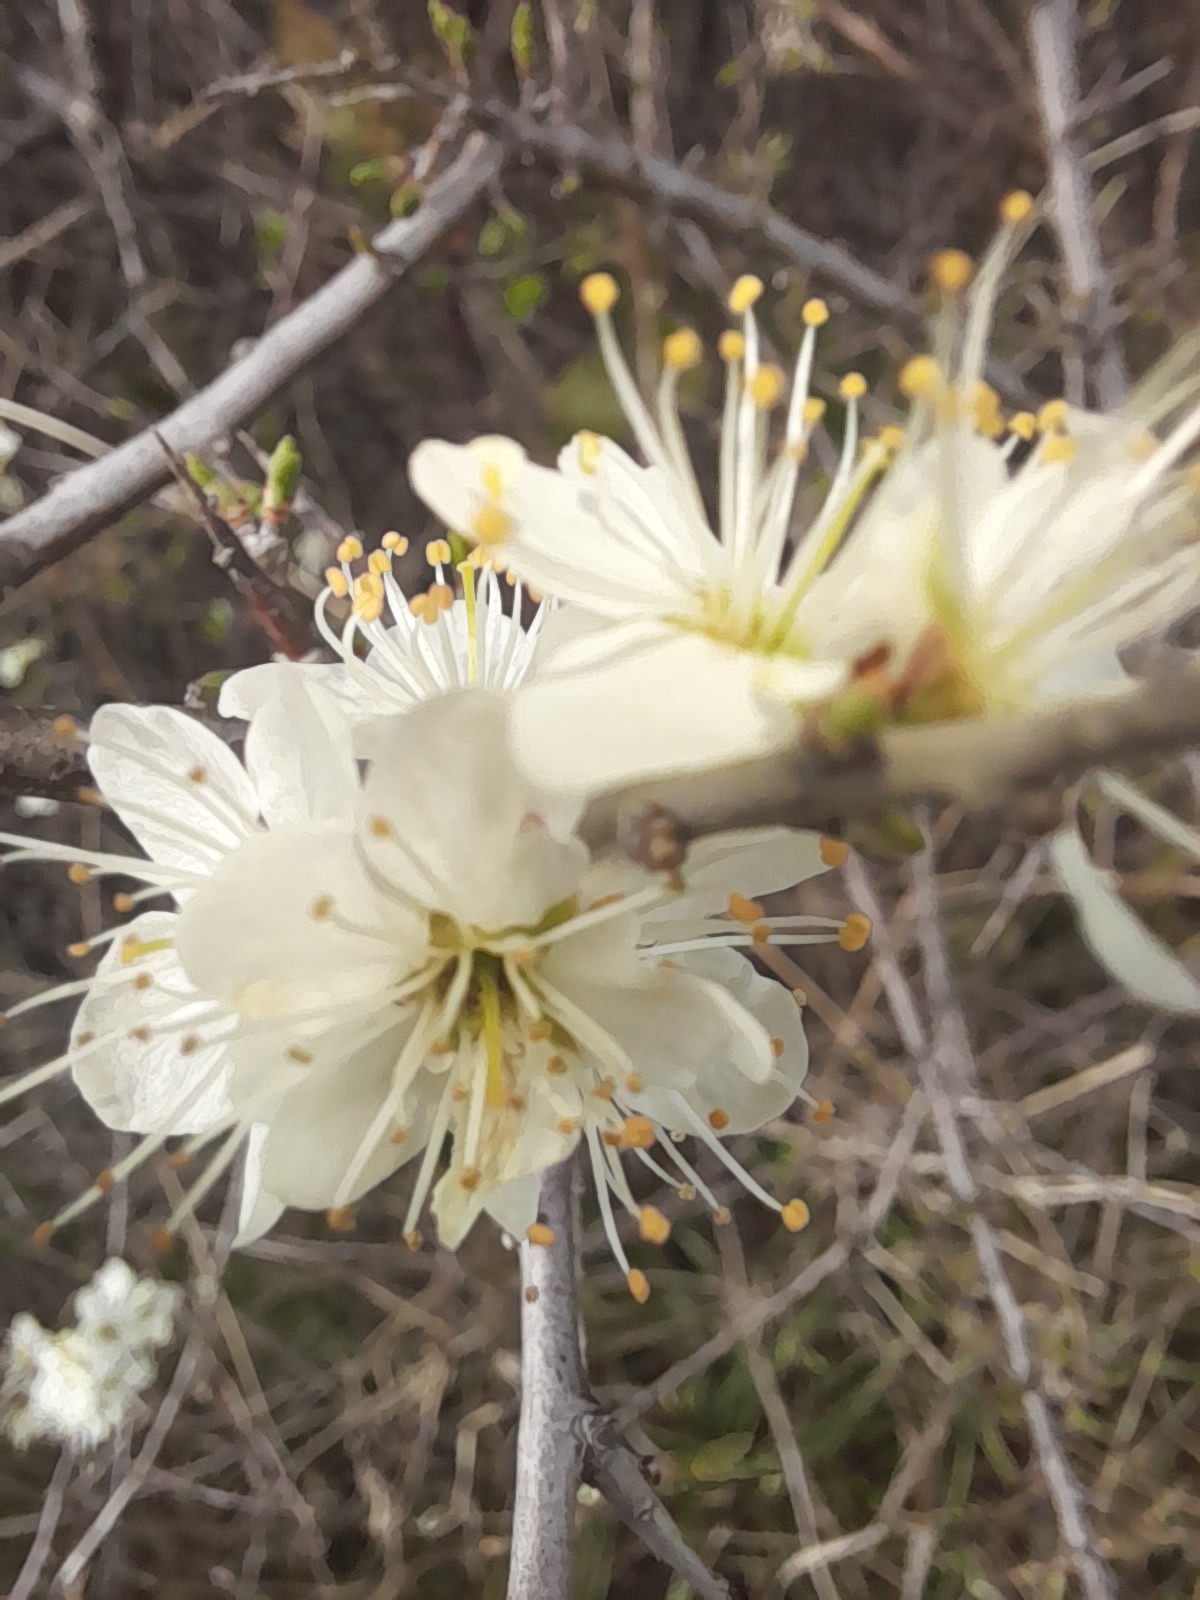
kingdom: Plantae
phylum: Tracheophyta
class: Magnoliopsida
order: Rosales
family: Rosaceae
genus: Prunus
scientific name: Prunus spinosa
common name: Blackthorn
